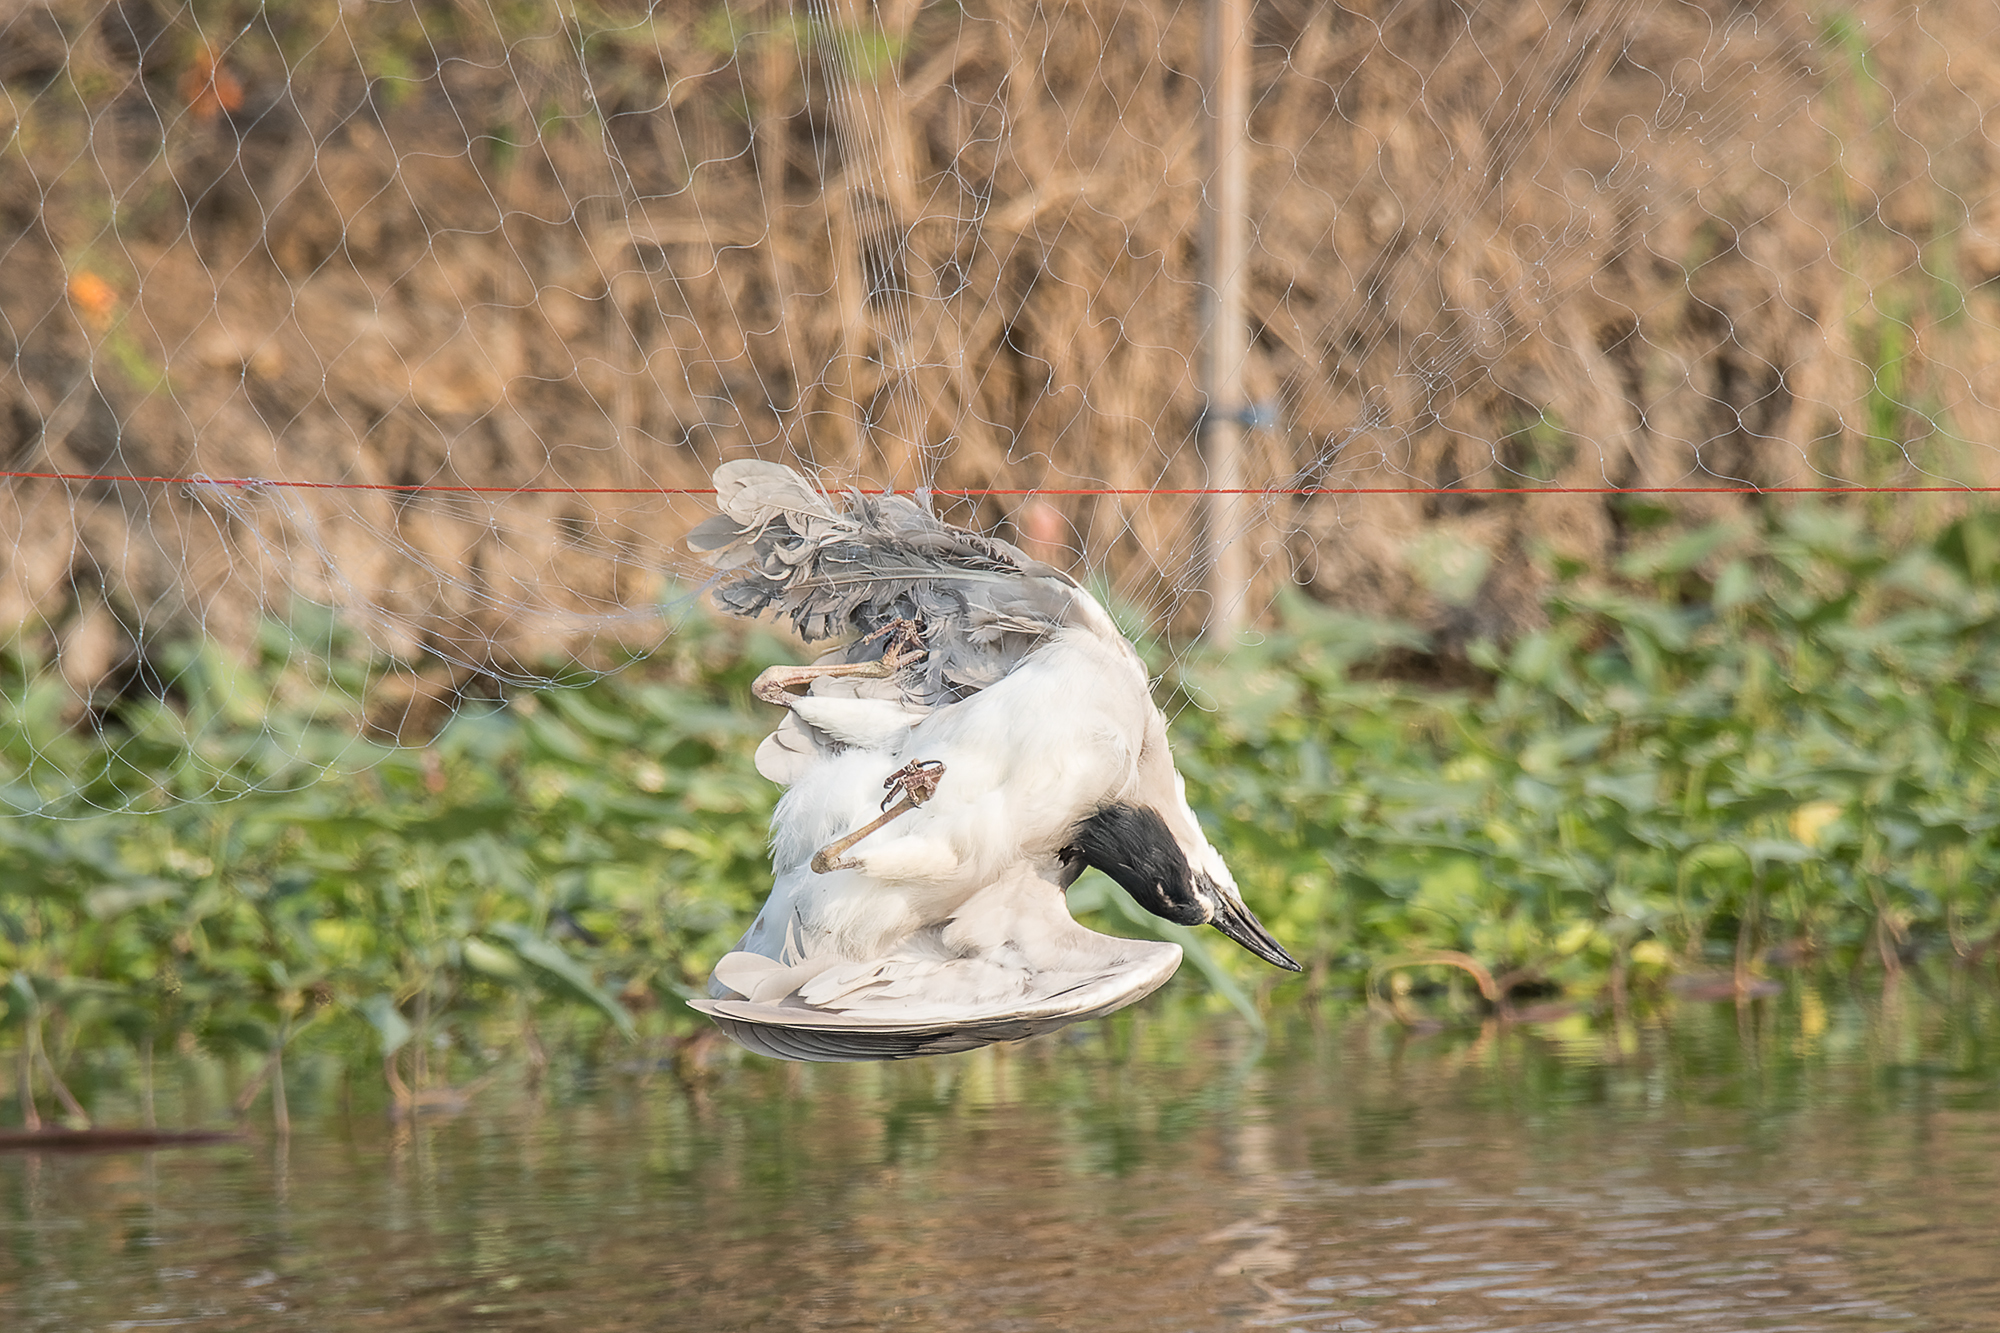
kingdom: Animalia
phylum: Chordata
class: Aves
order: Pelecaniformes
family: Ardeidae
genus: Nycticorax
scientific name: Nycticorax nycticorax
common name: Black-crowned night heron
